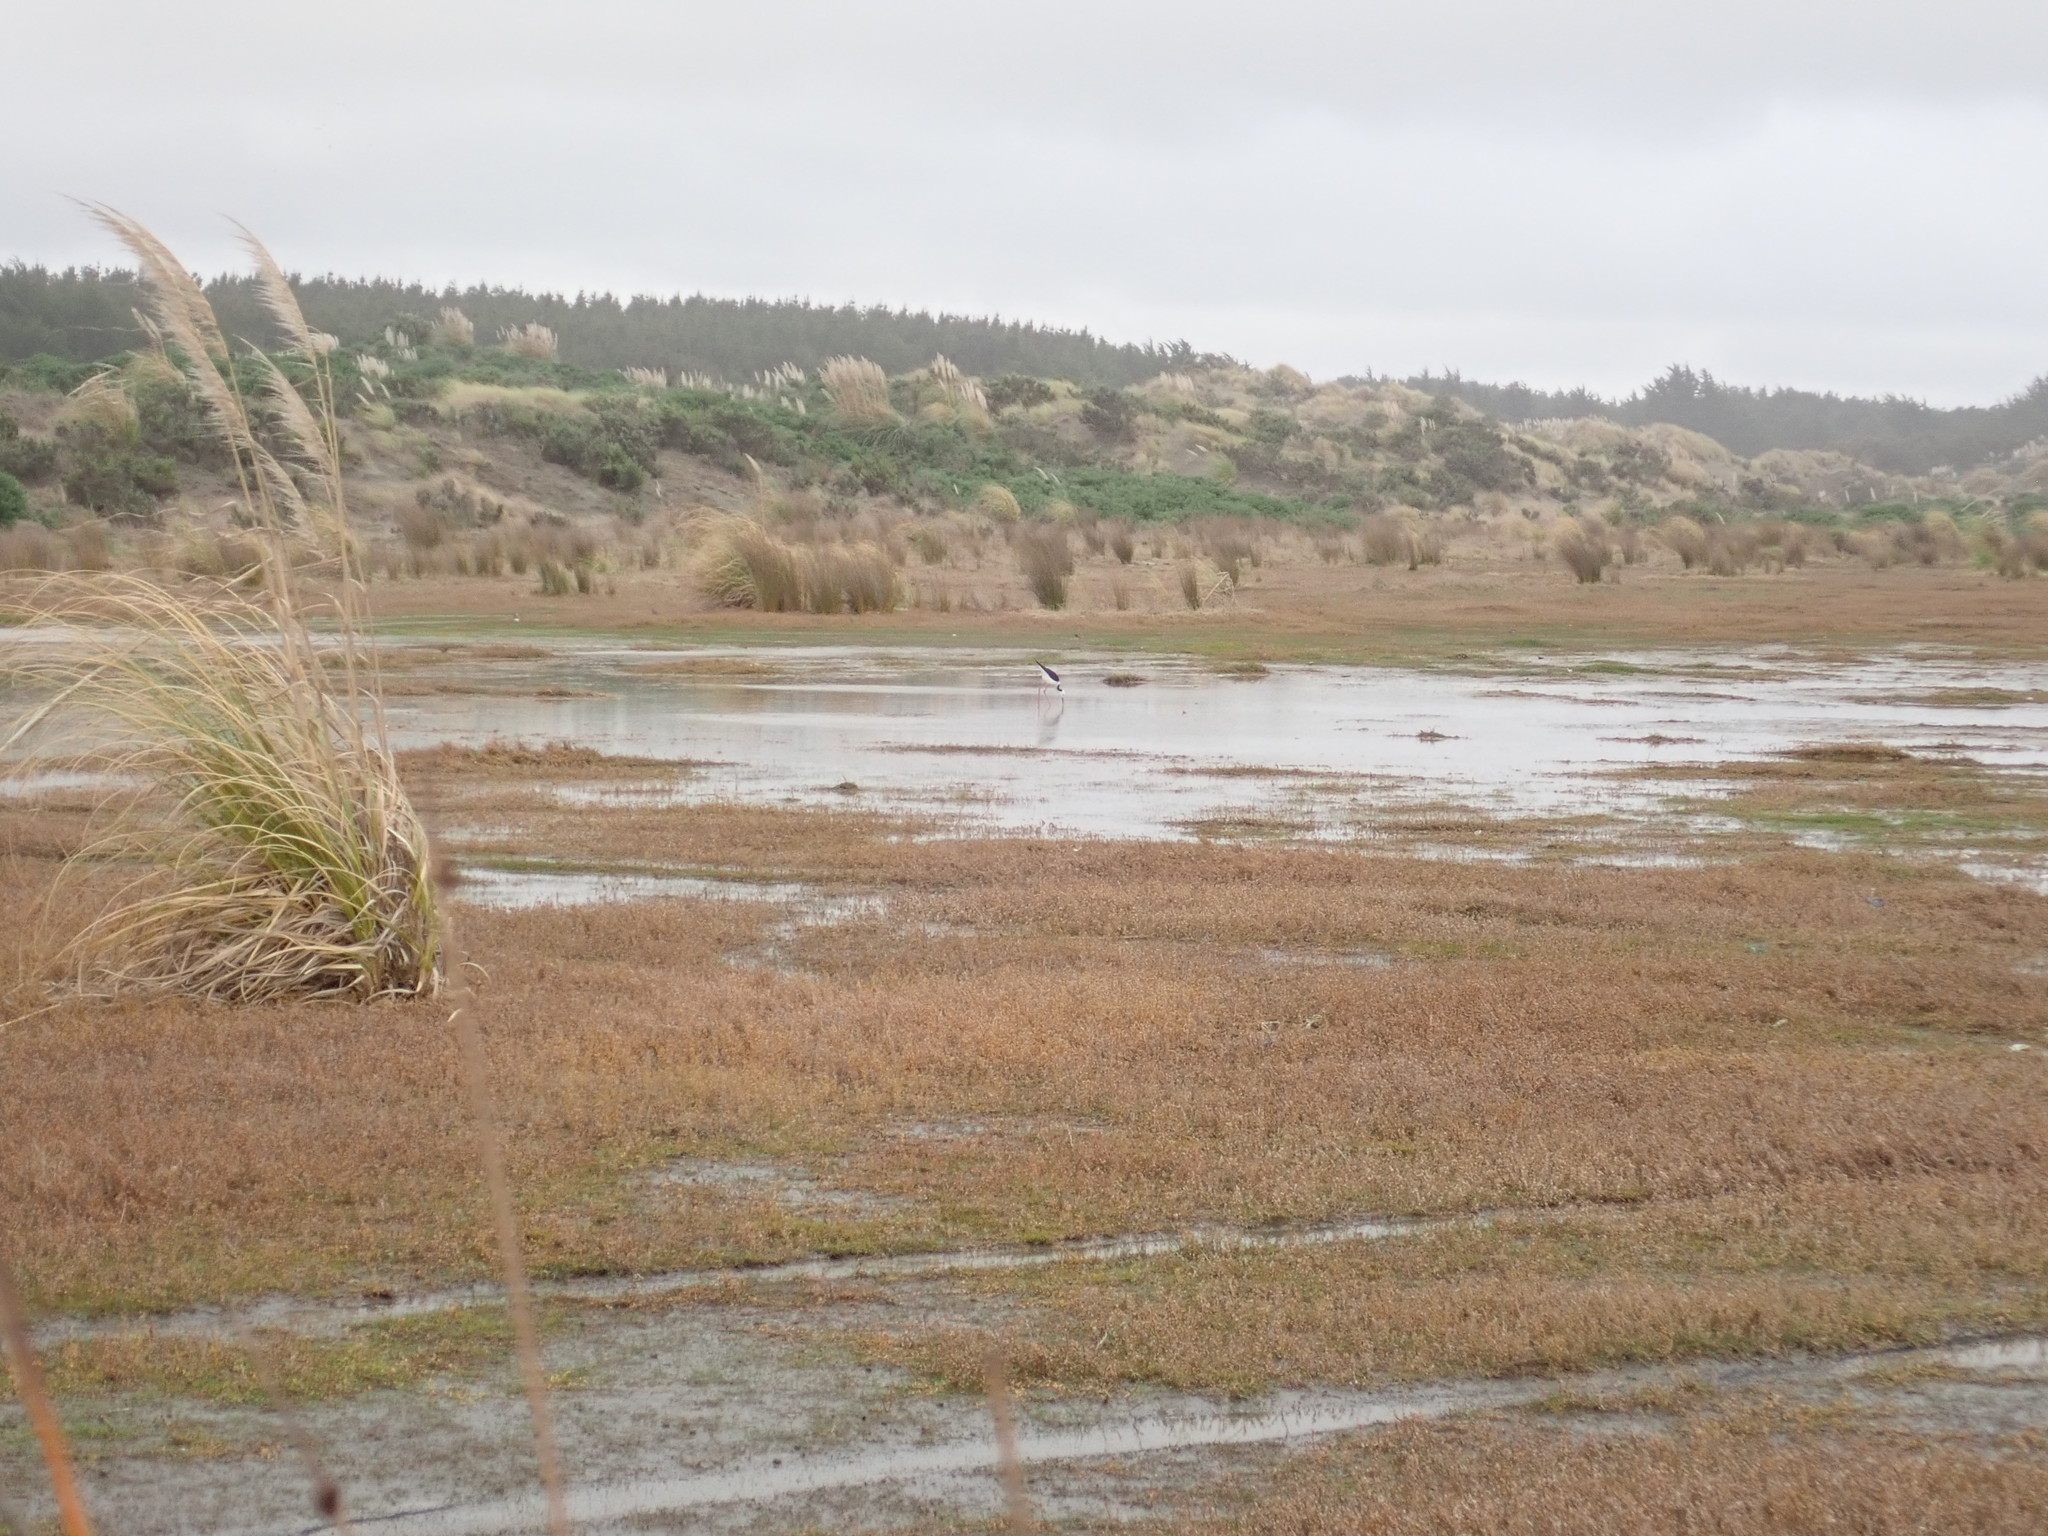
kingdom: Animalia
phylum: Chordata
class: Aves
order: Charadriiformes
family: Recurvirostridae
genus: Himantopus
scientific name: Himantopus leucocephalus
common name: White-headed stilt
